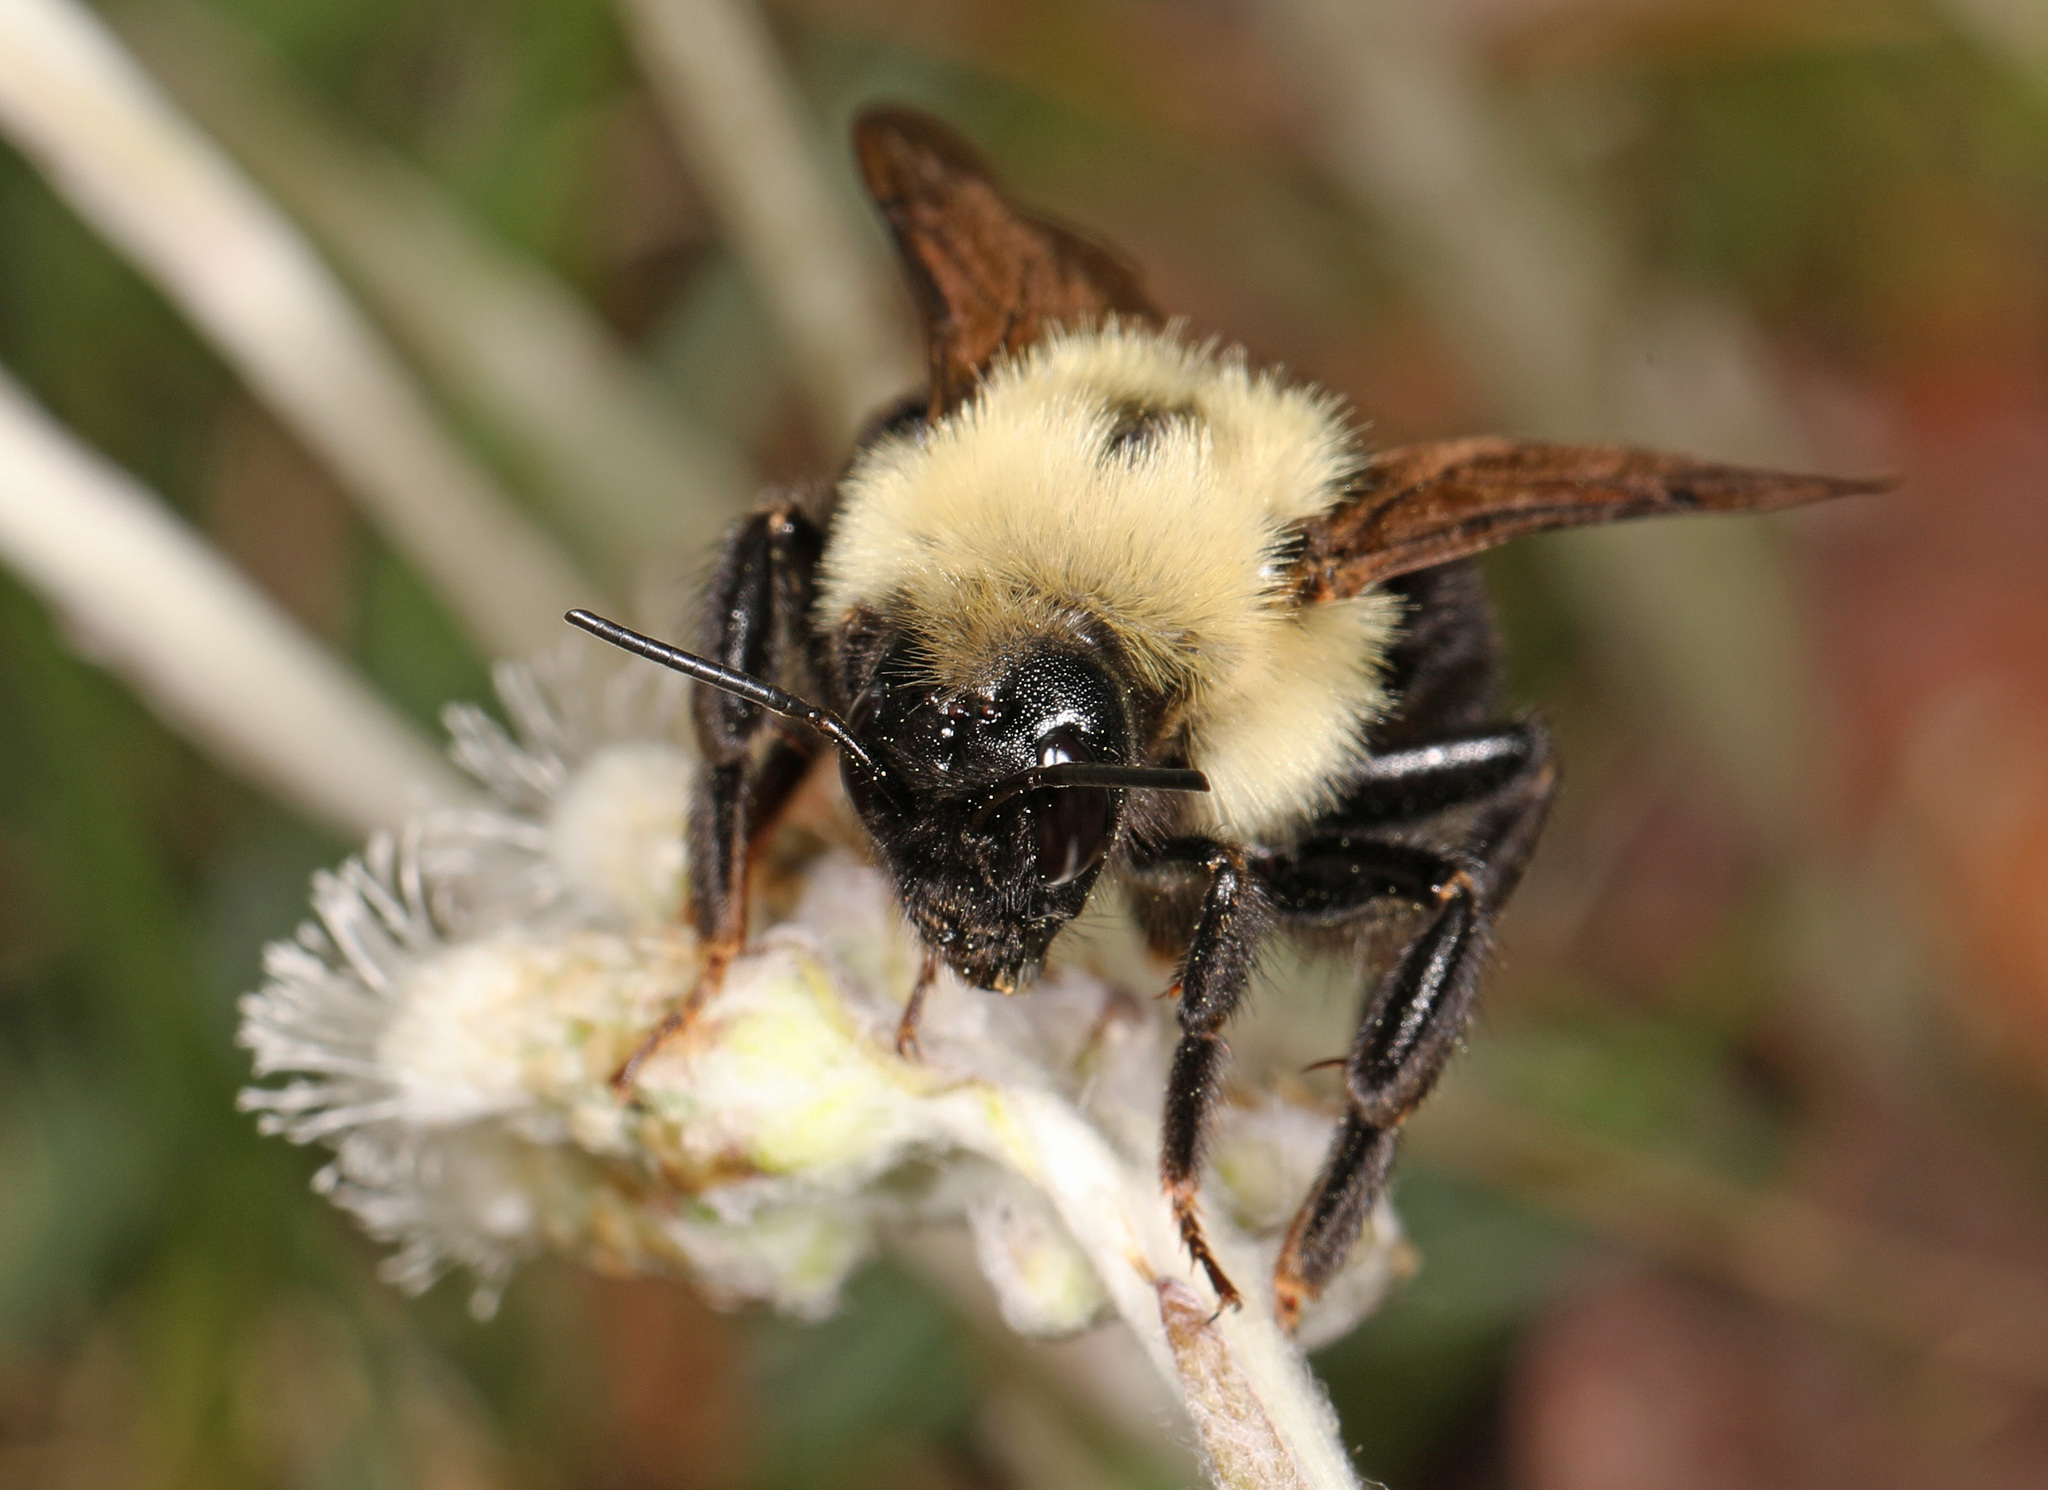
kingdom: Animalia
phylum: Arthropoda
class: Insecta
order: Hymenoptera
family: Apidae
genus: Bombus
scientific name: Bombus citrinus
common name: Lemon cuckoo bumble bee
